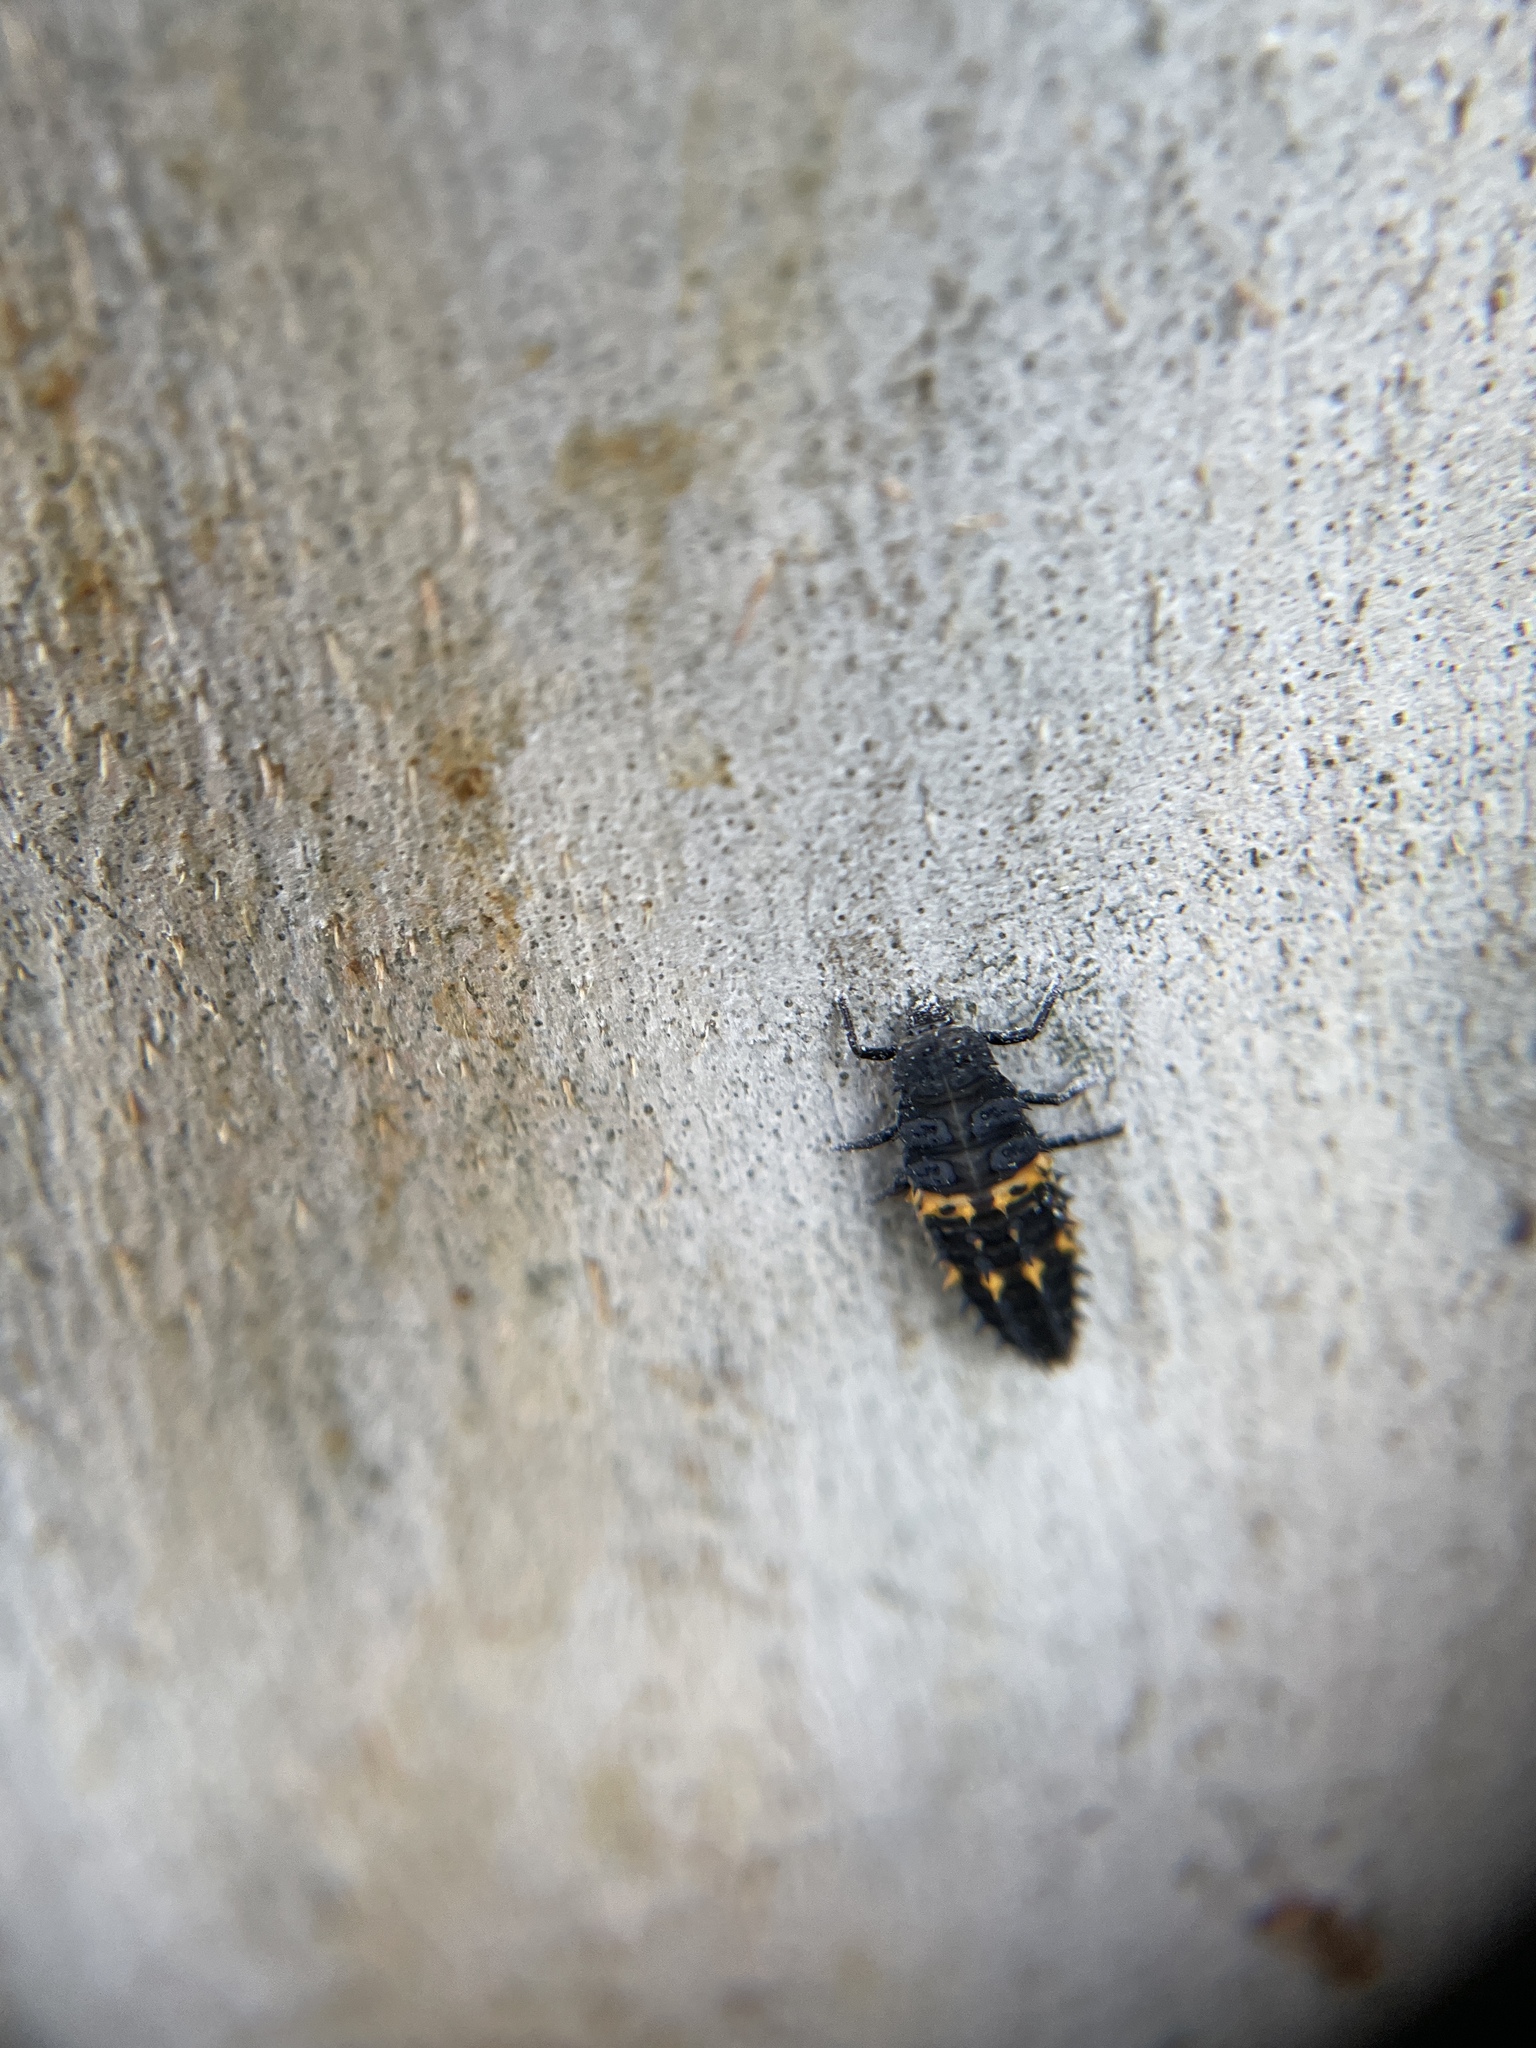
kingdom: Animalia
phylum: Arthropoda
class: Insecta
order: Coleoptera
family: Coccinellidae
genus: Harmonia
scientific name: Harmonia conformis
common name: Common spotted ladybird beetle
